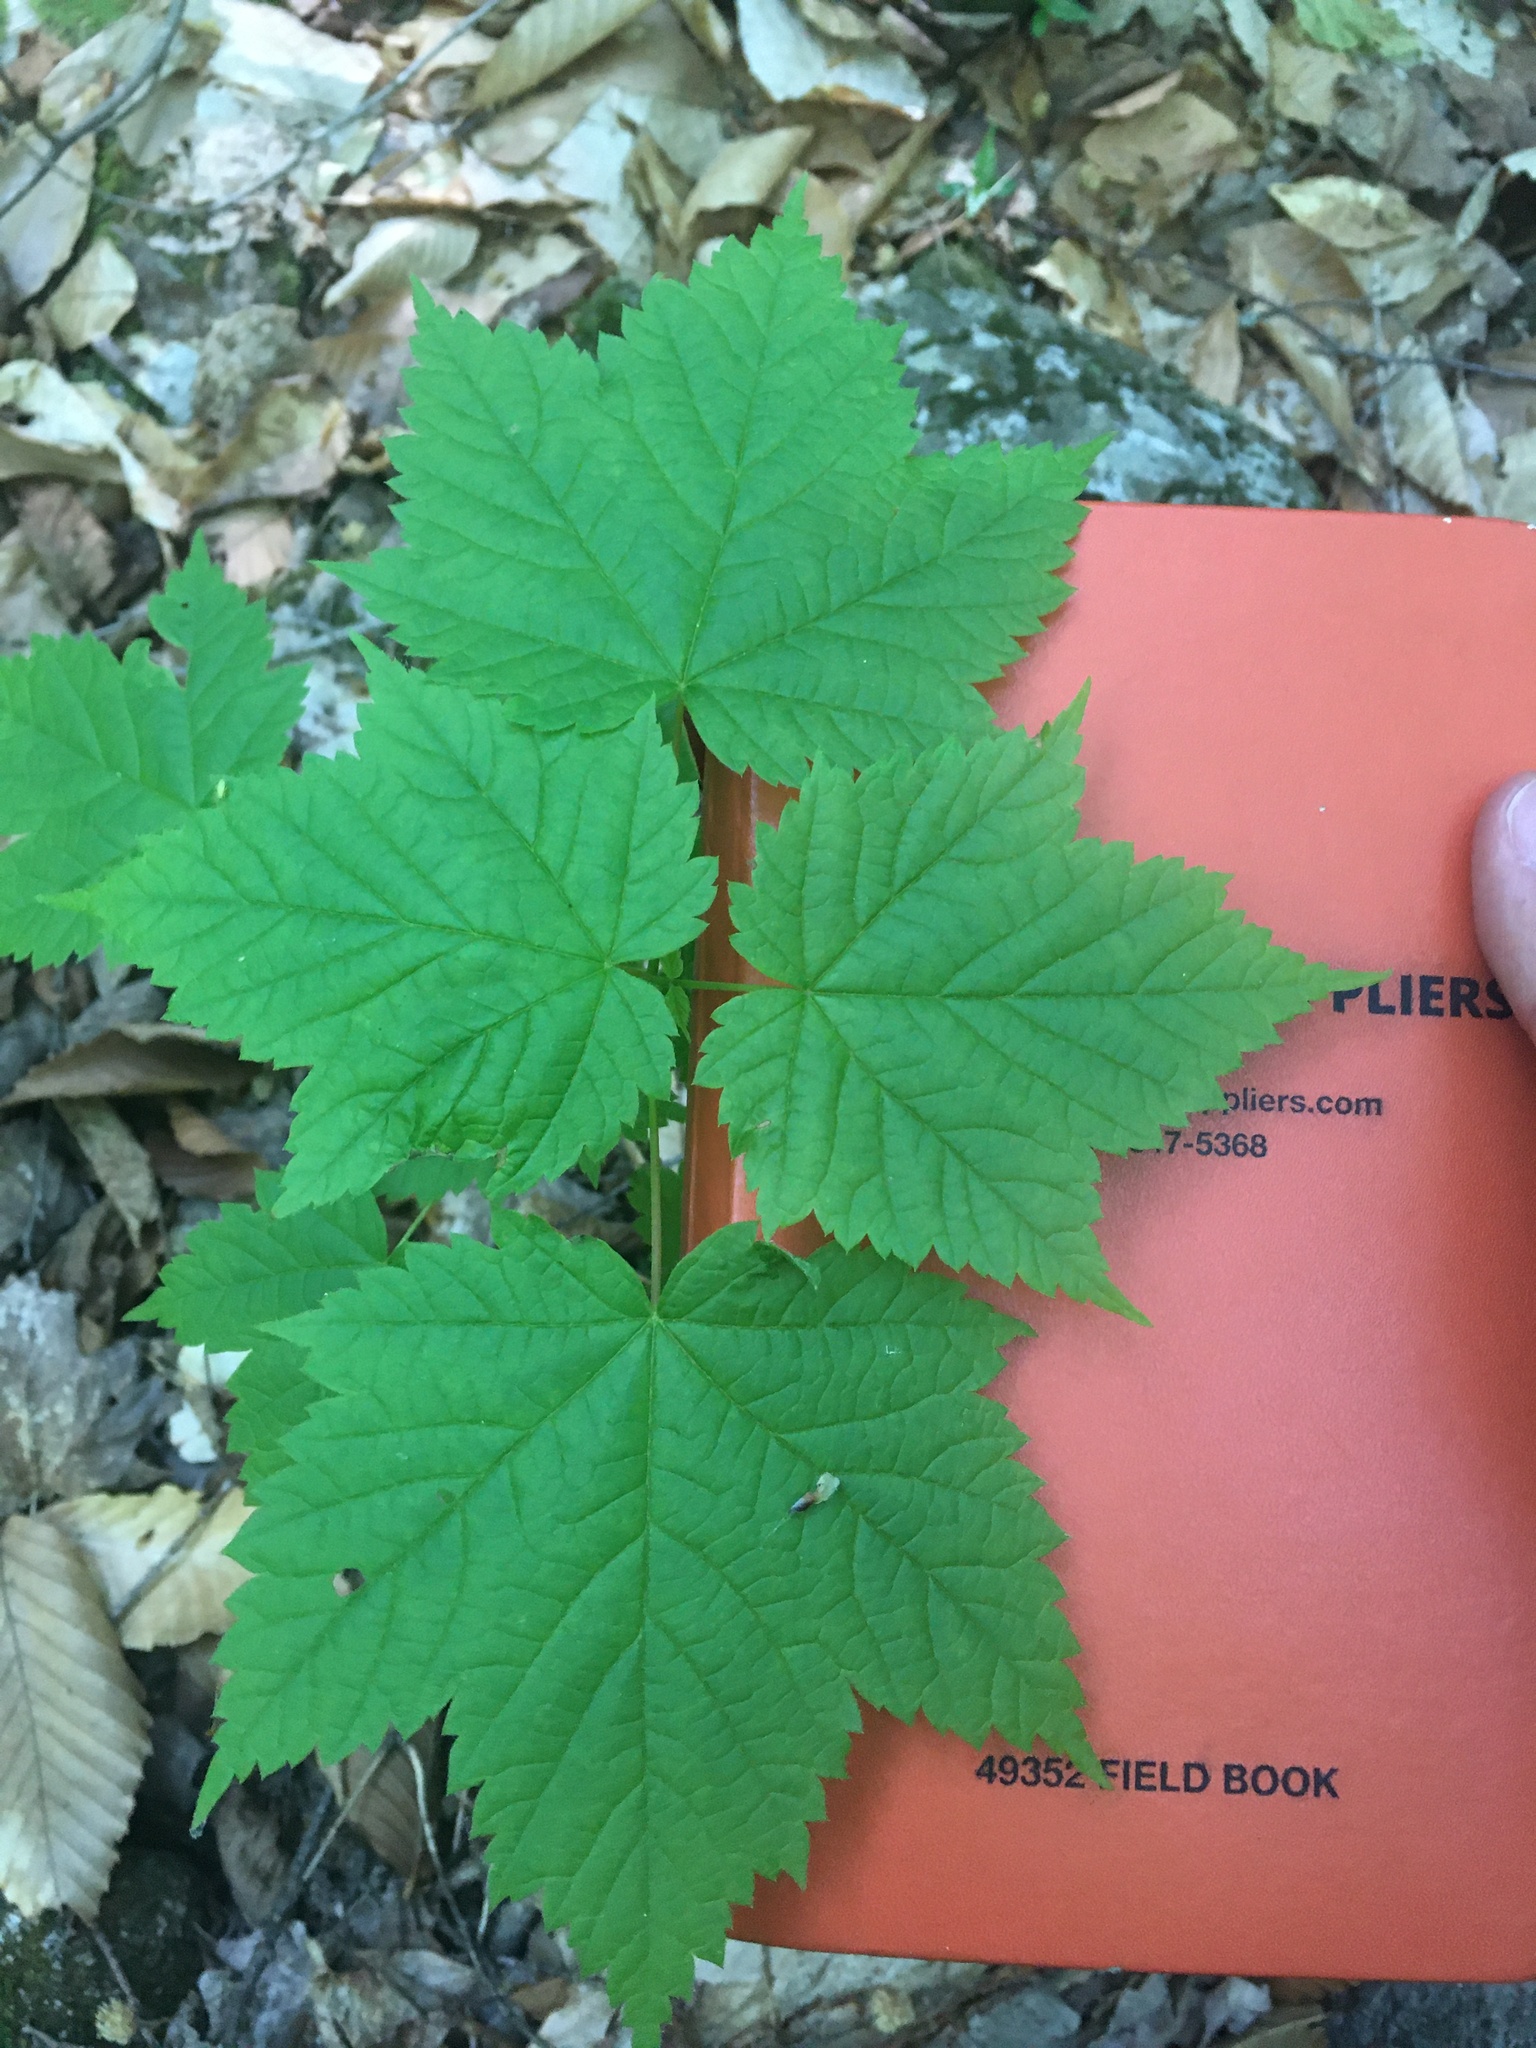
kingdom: Plantae
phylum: Tracheophyta
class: Magnoliopsida
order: Sapindales
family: Sapindaceae
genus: Acer
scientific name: Acer spicatum
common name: Mountain maple
